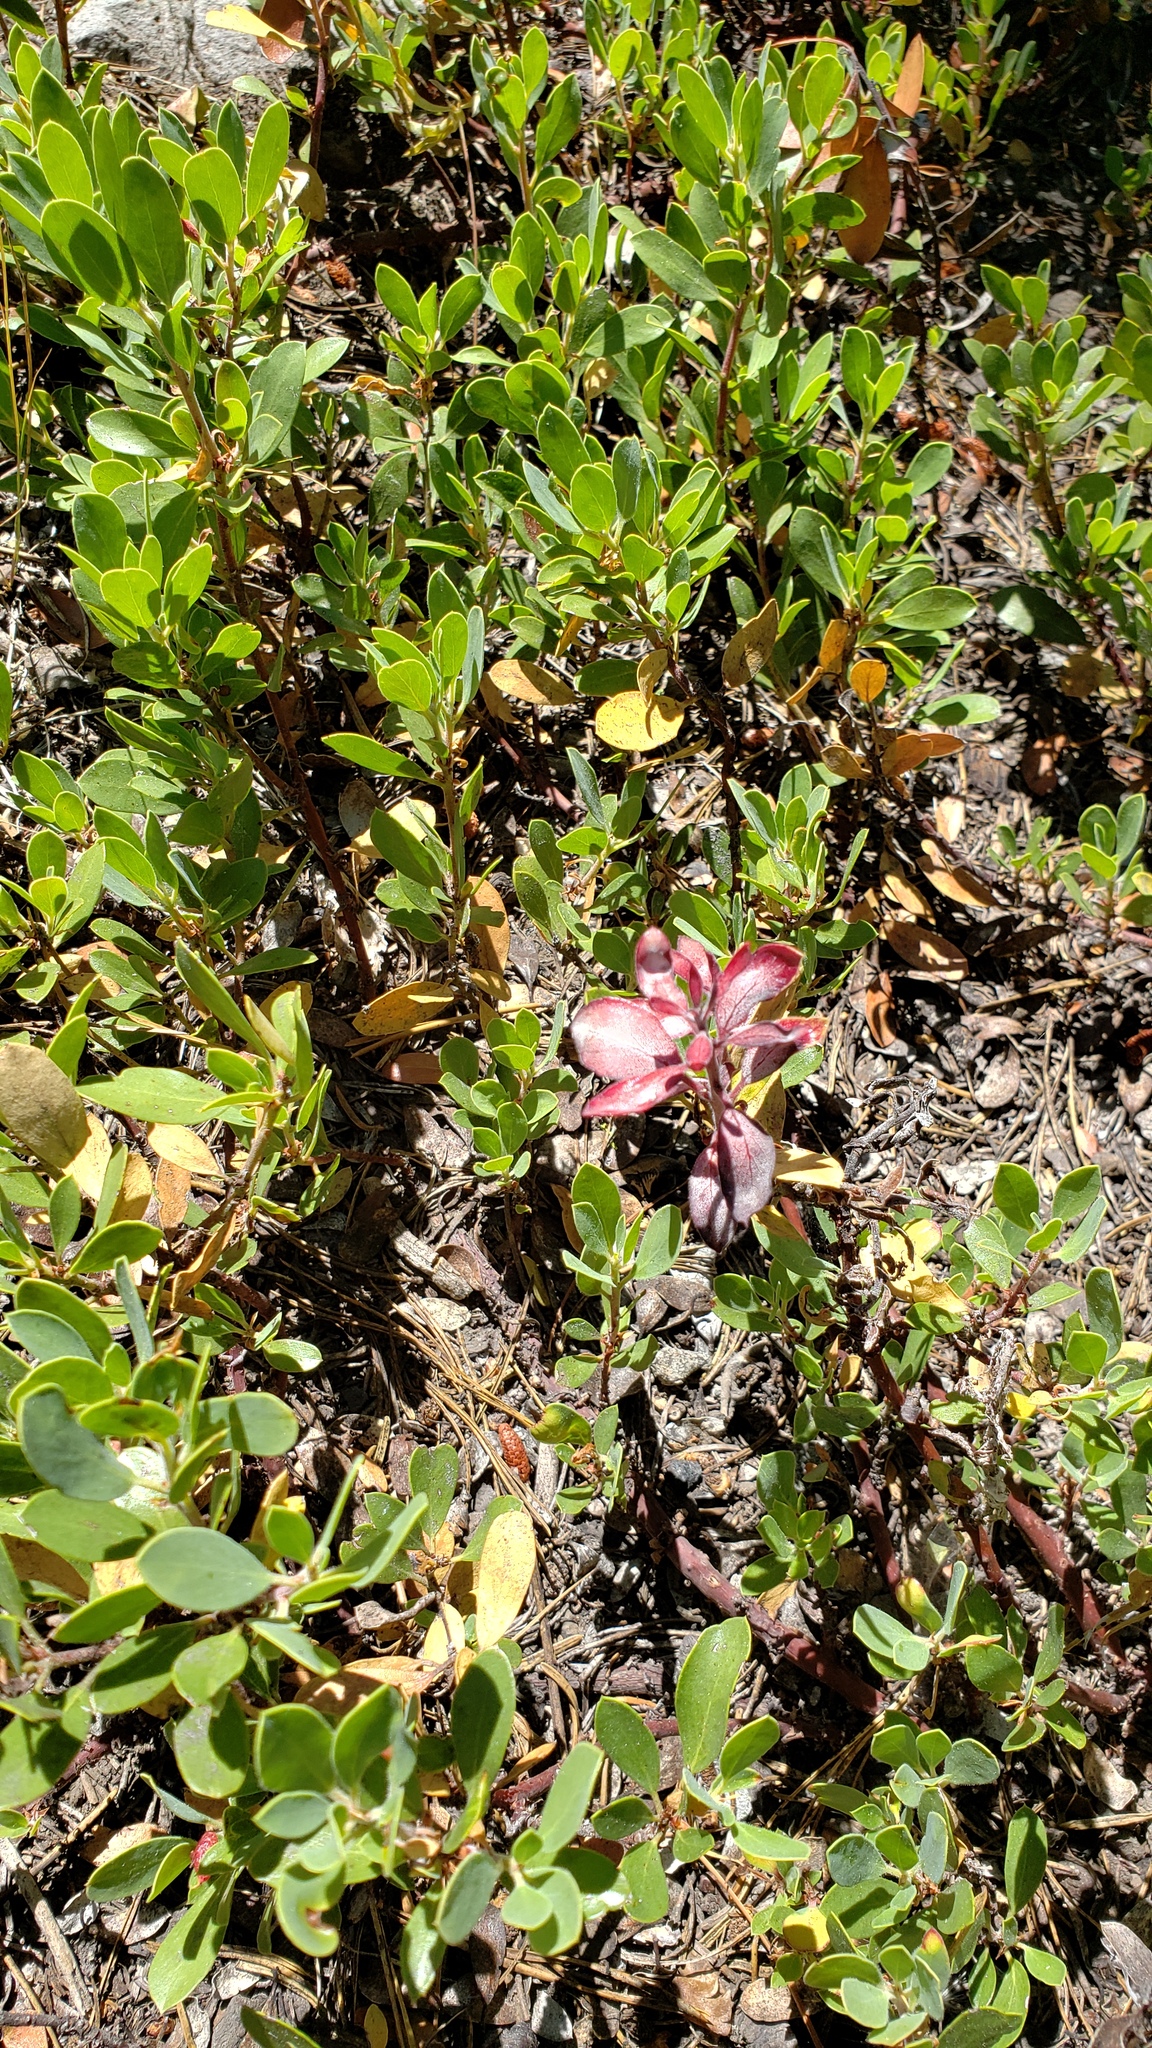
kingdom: Plantae
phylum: Tracheophyta
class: Magnoliopsida
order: Ericales
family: Ericaceae
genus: Arctostaphylos
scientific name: Arctostaphylos nevadensis
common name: Pinemat manzanita
